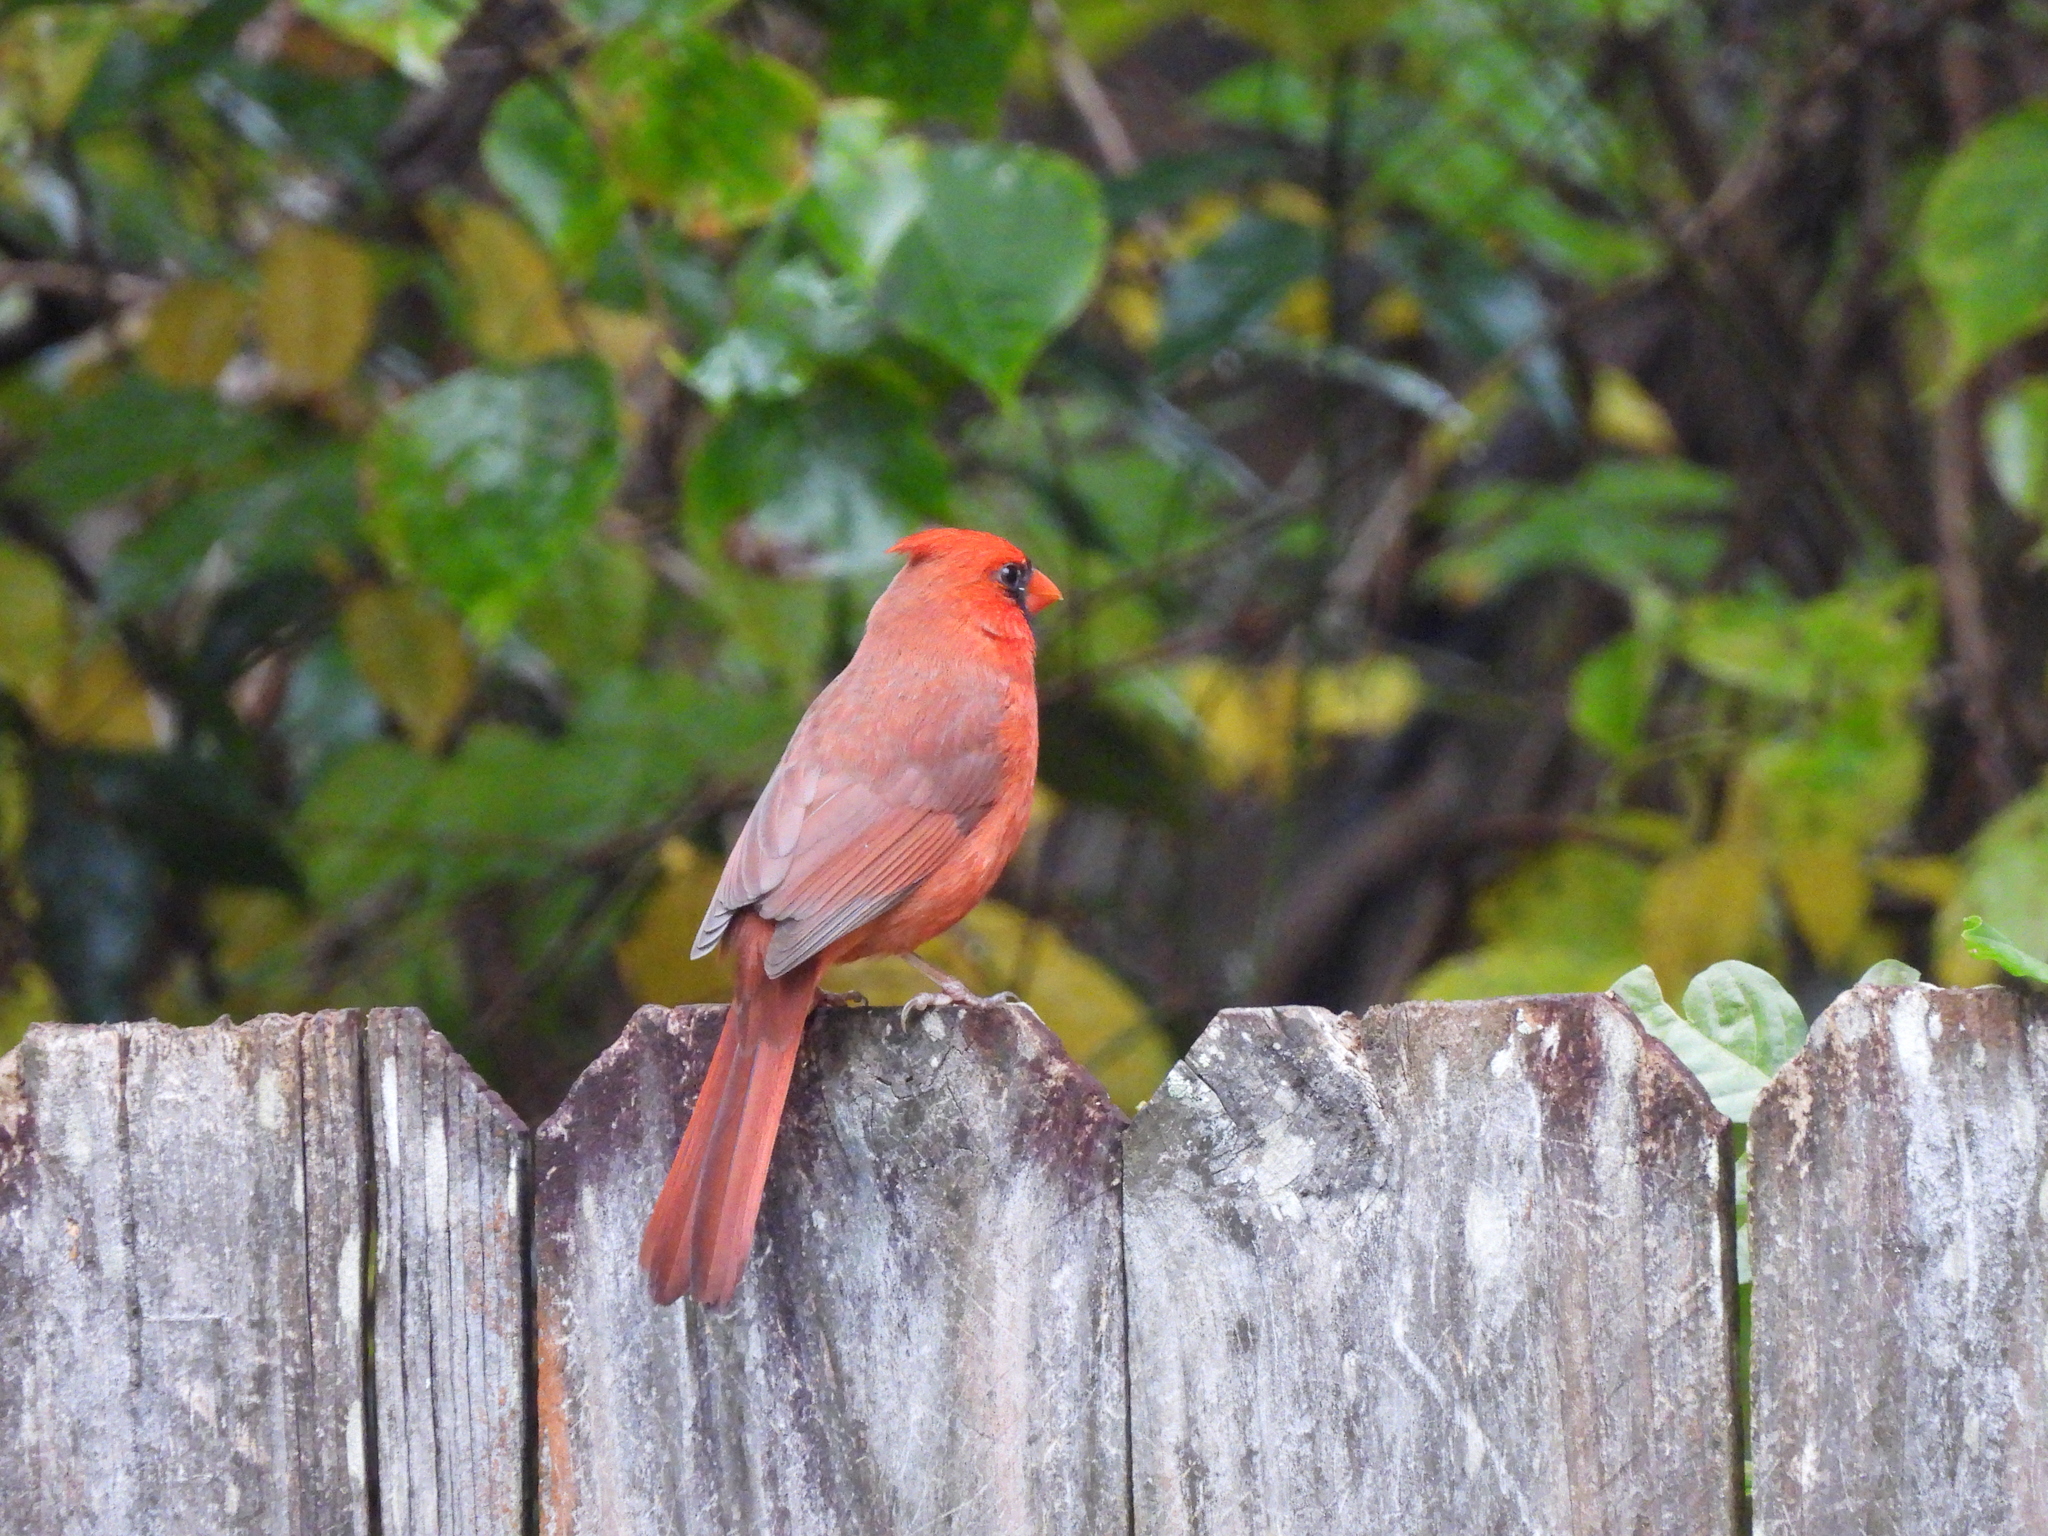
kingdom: Animalia
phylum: Chordata
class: Aves
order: Passeriformes
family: Cardinalidae
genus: Cardinalis
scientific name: Cardinalis cardinalis
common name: Northern cardinal
